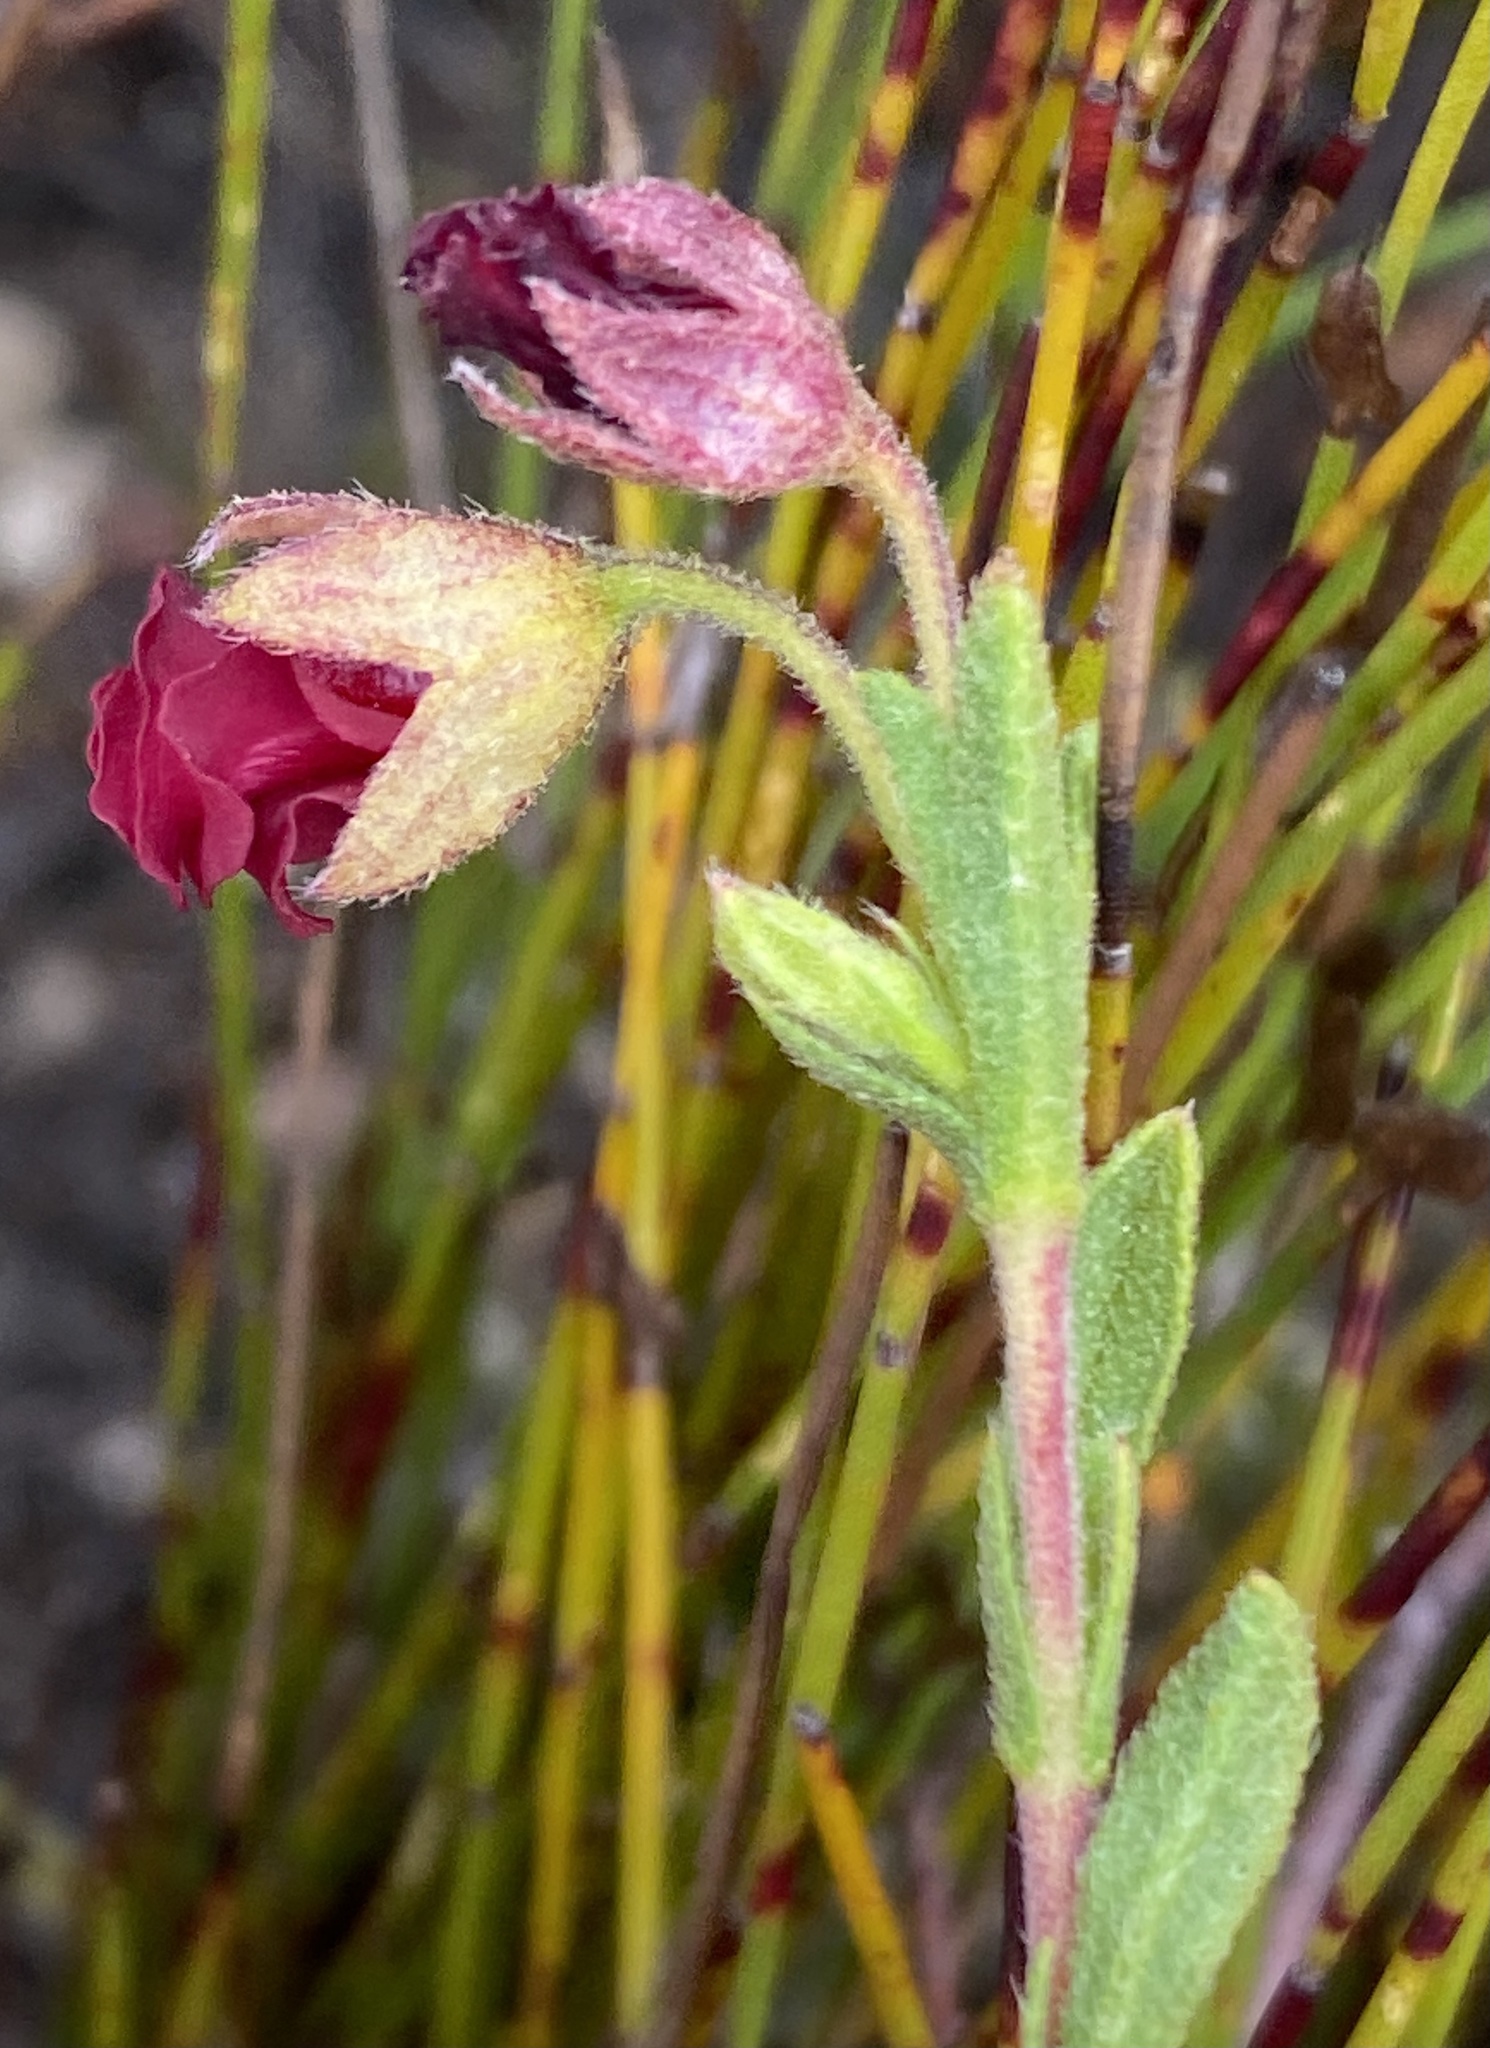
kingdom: Plantae
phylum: Tracheophyta
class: Magnoliopsida
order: Malvales
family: Malvaceae
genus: Hermannia
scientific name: Hermannia flammula
